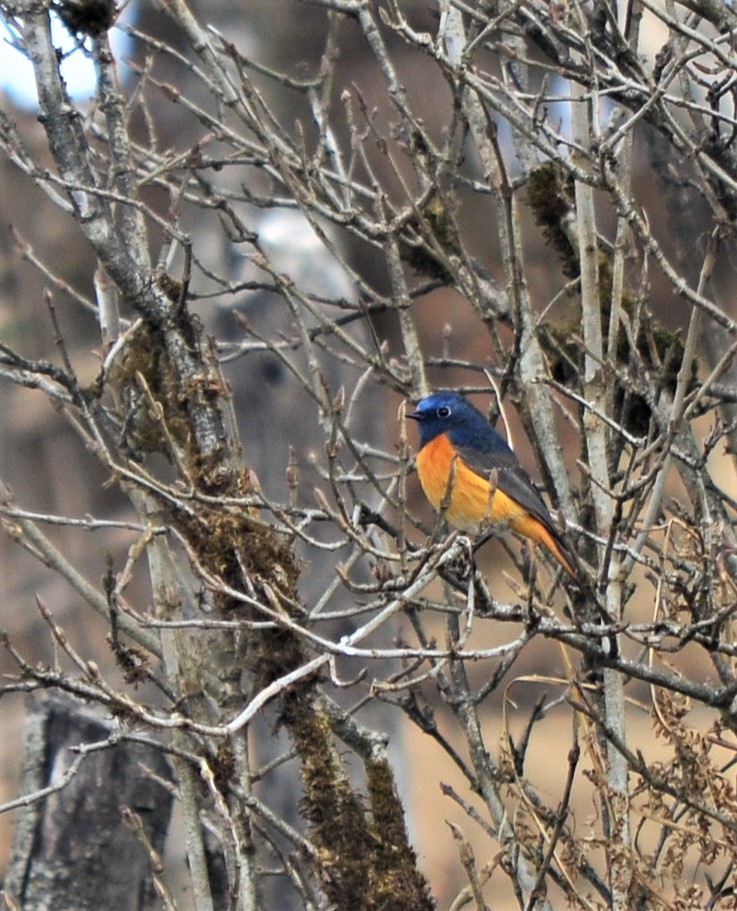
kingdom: Animalia
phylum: Chordata
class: Aves
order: Passeriformes
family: Muscicapidae
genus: Phoenicurus
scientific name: Phoenicurus frontalis
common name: Blue-fronted redstart
